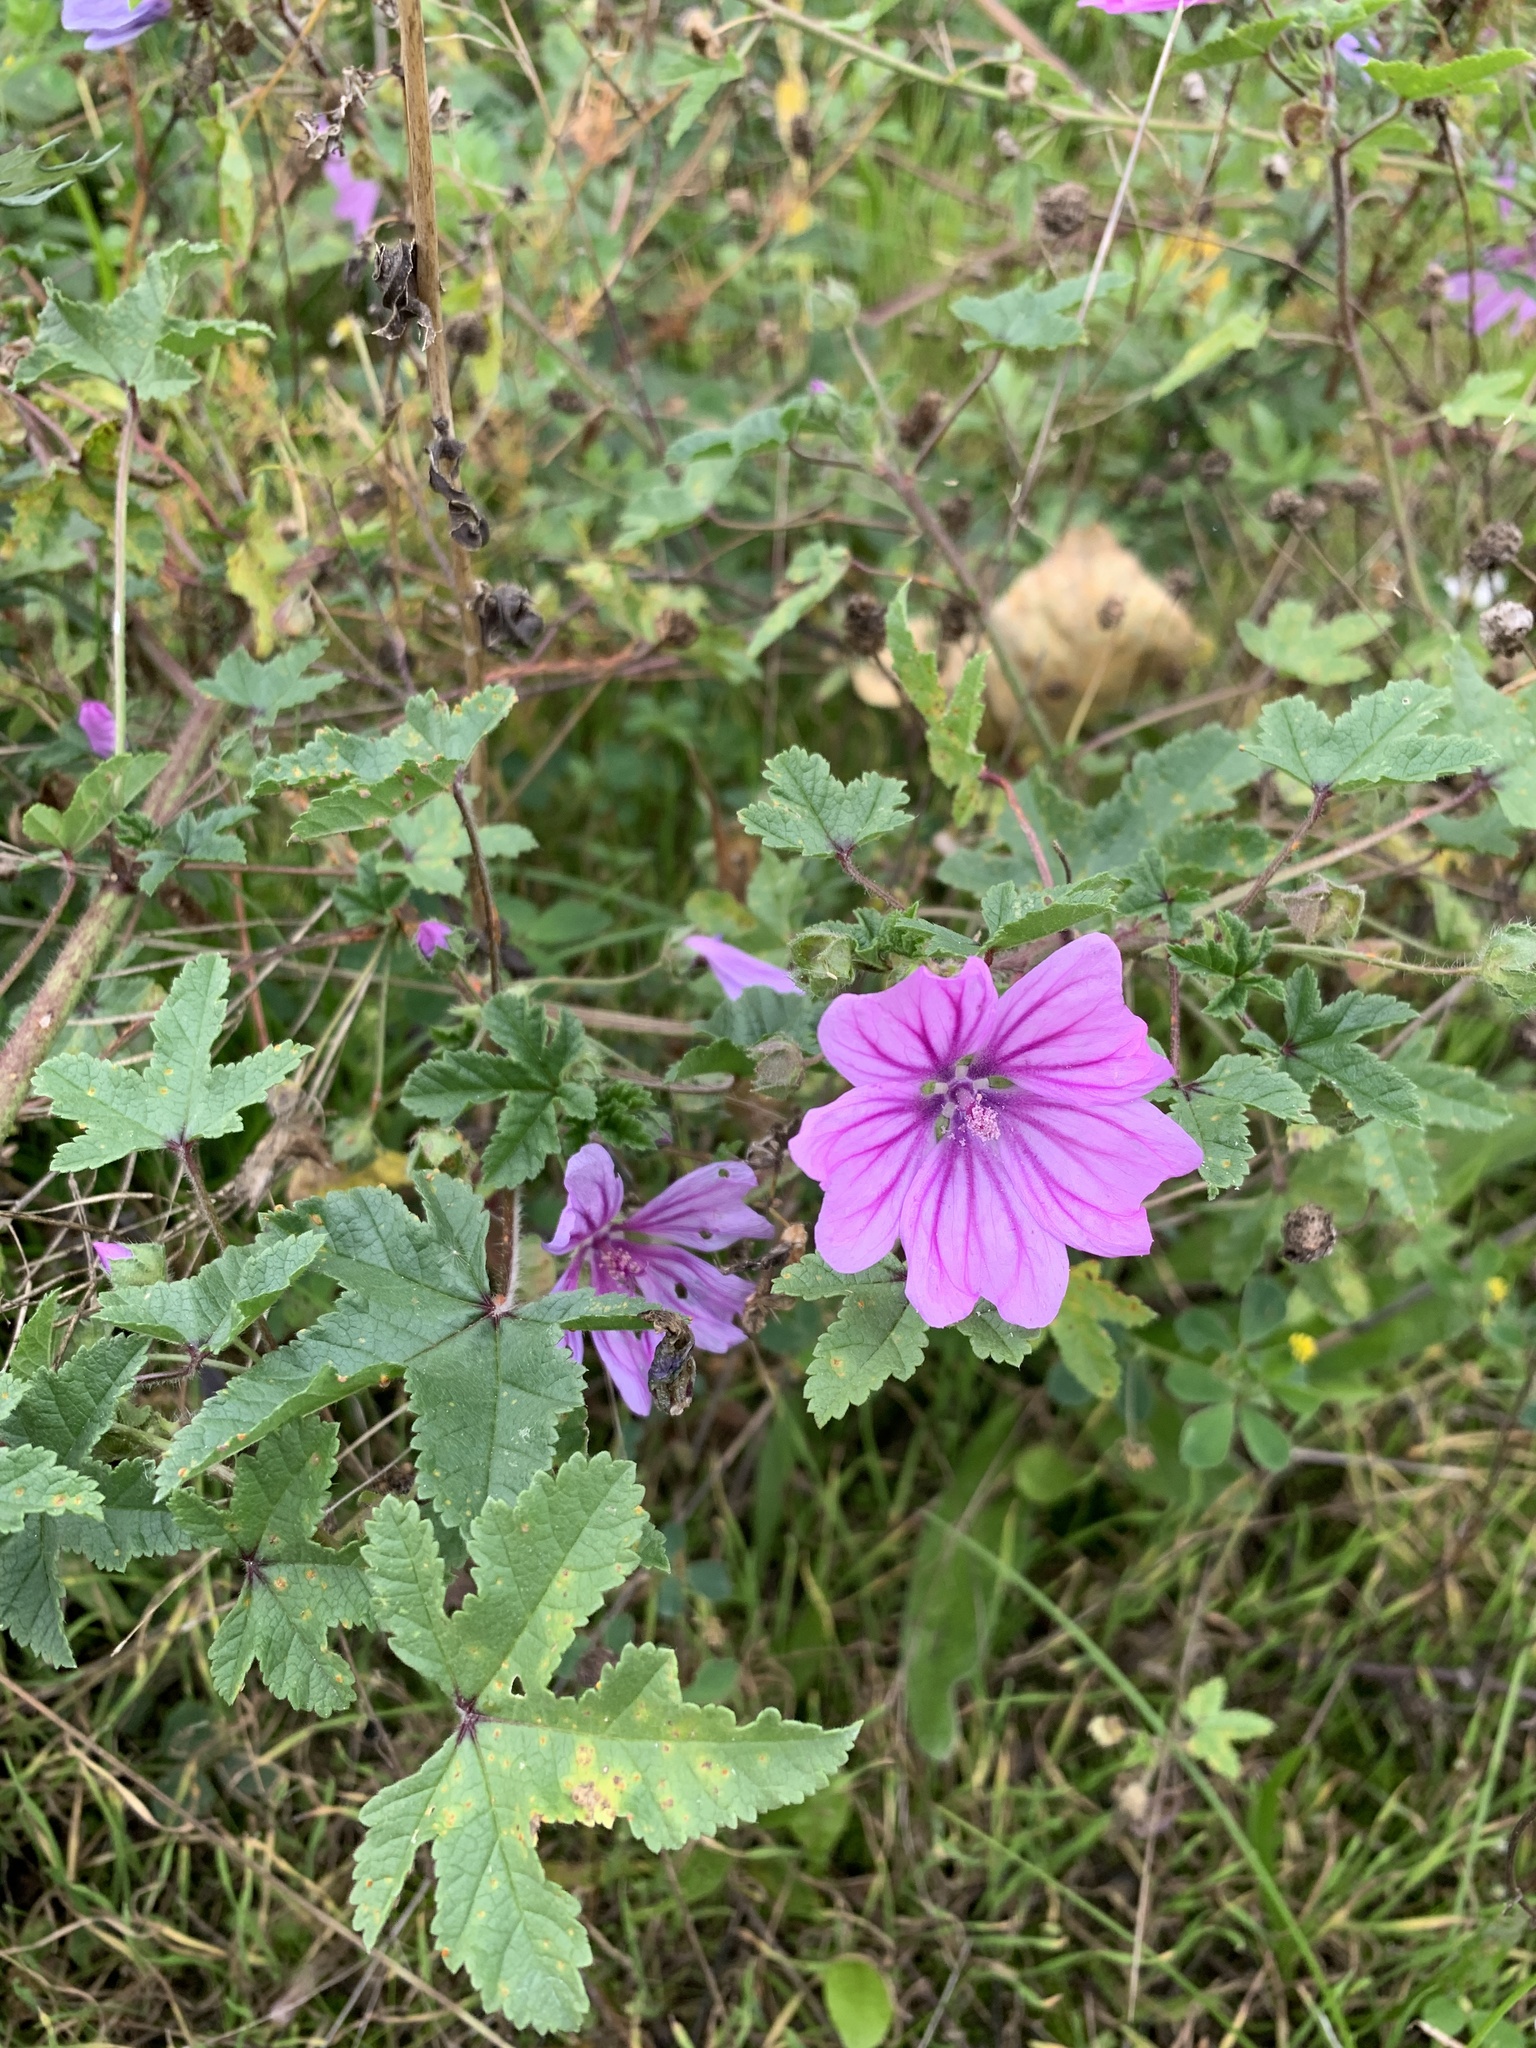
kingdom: Plantae
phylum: Tracheophyta
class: Magnoliopsida
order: Malvales
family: Malvaceae
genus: Malva
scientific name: Malva sylvestris
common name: Common mallow
